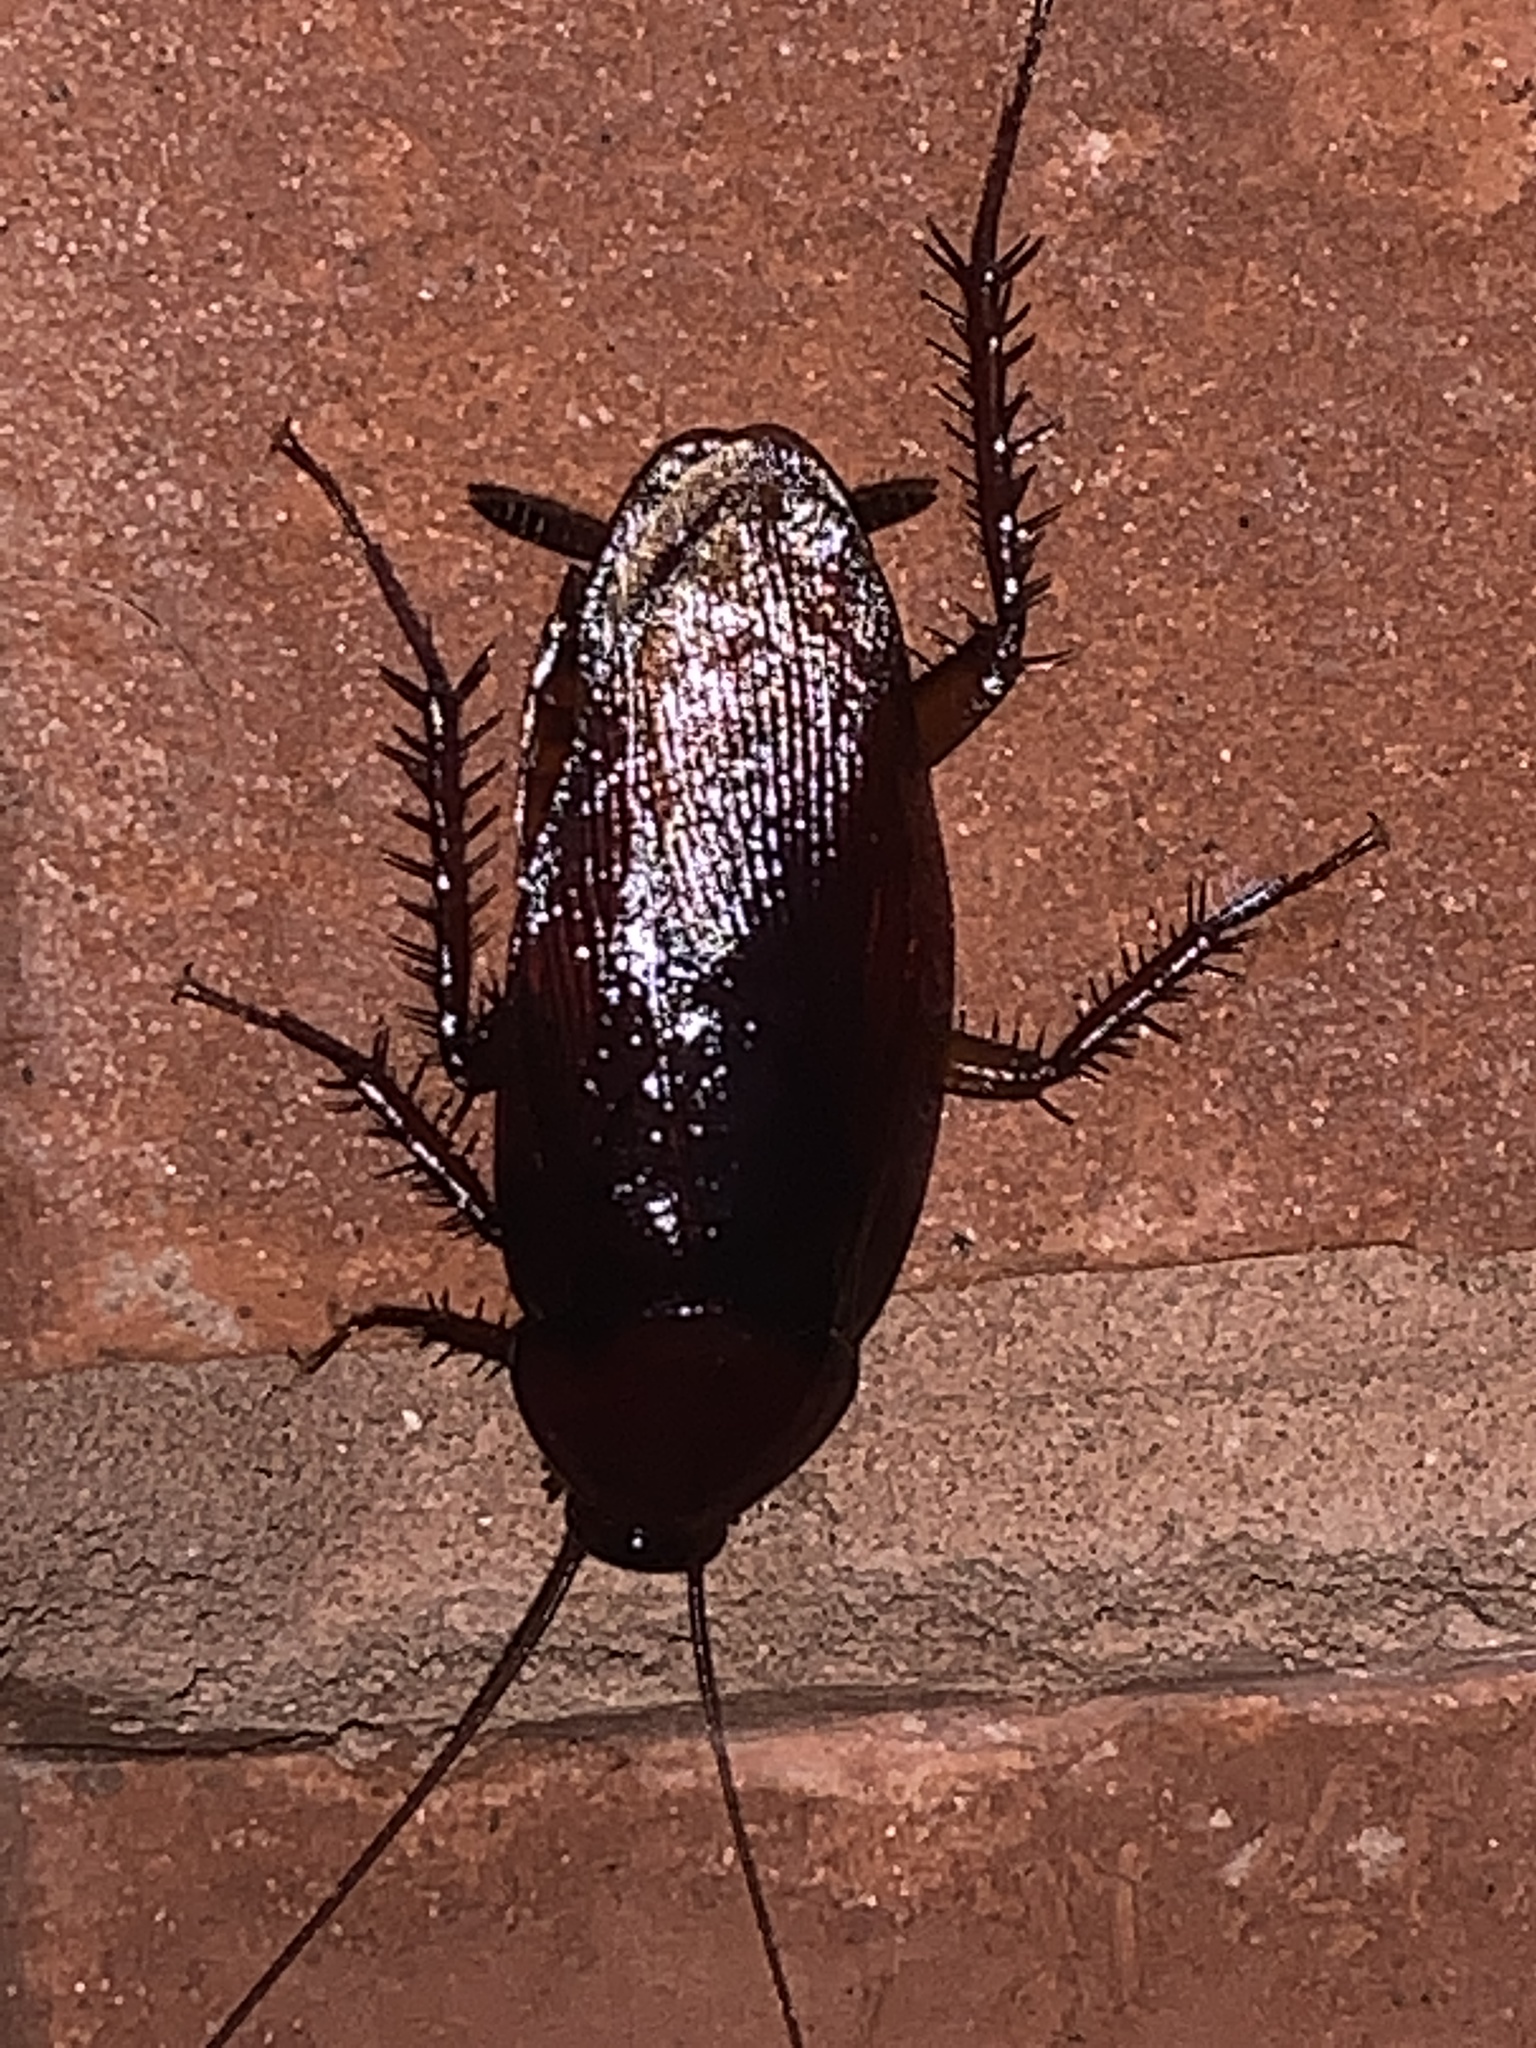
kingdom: Animalia
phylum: Arthropoda
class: Insecta
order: Blattodea
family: Blattidae
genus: Periplaneta
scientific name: Periplaneta fuliginosa
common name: Smokeybrown cockroad
